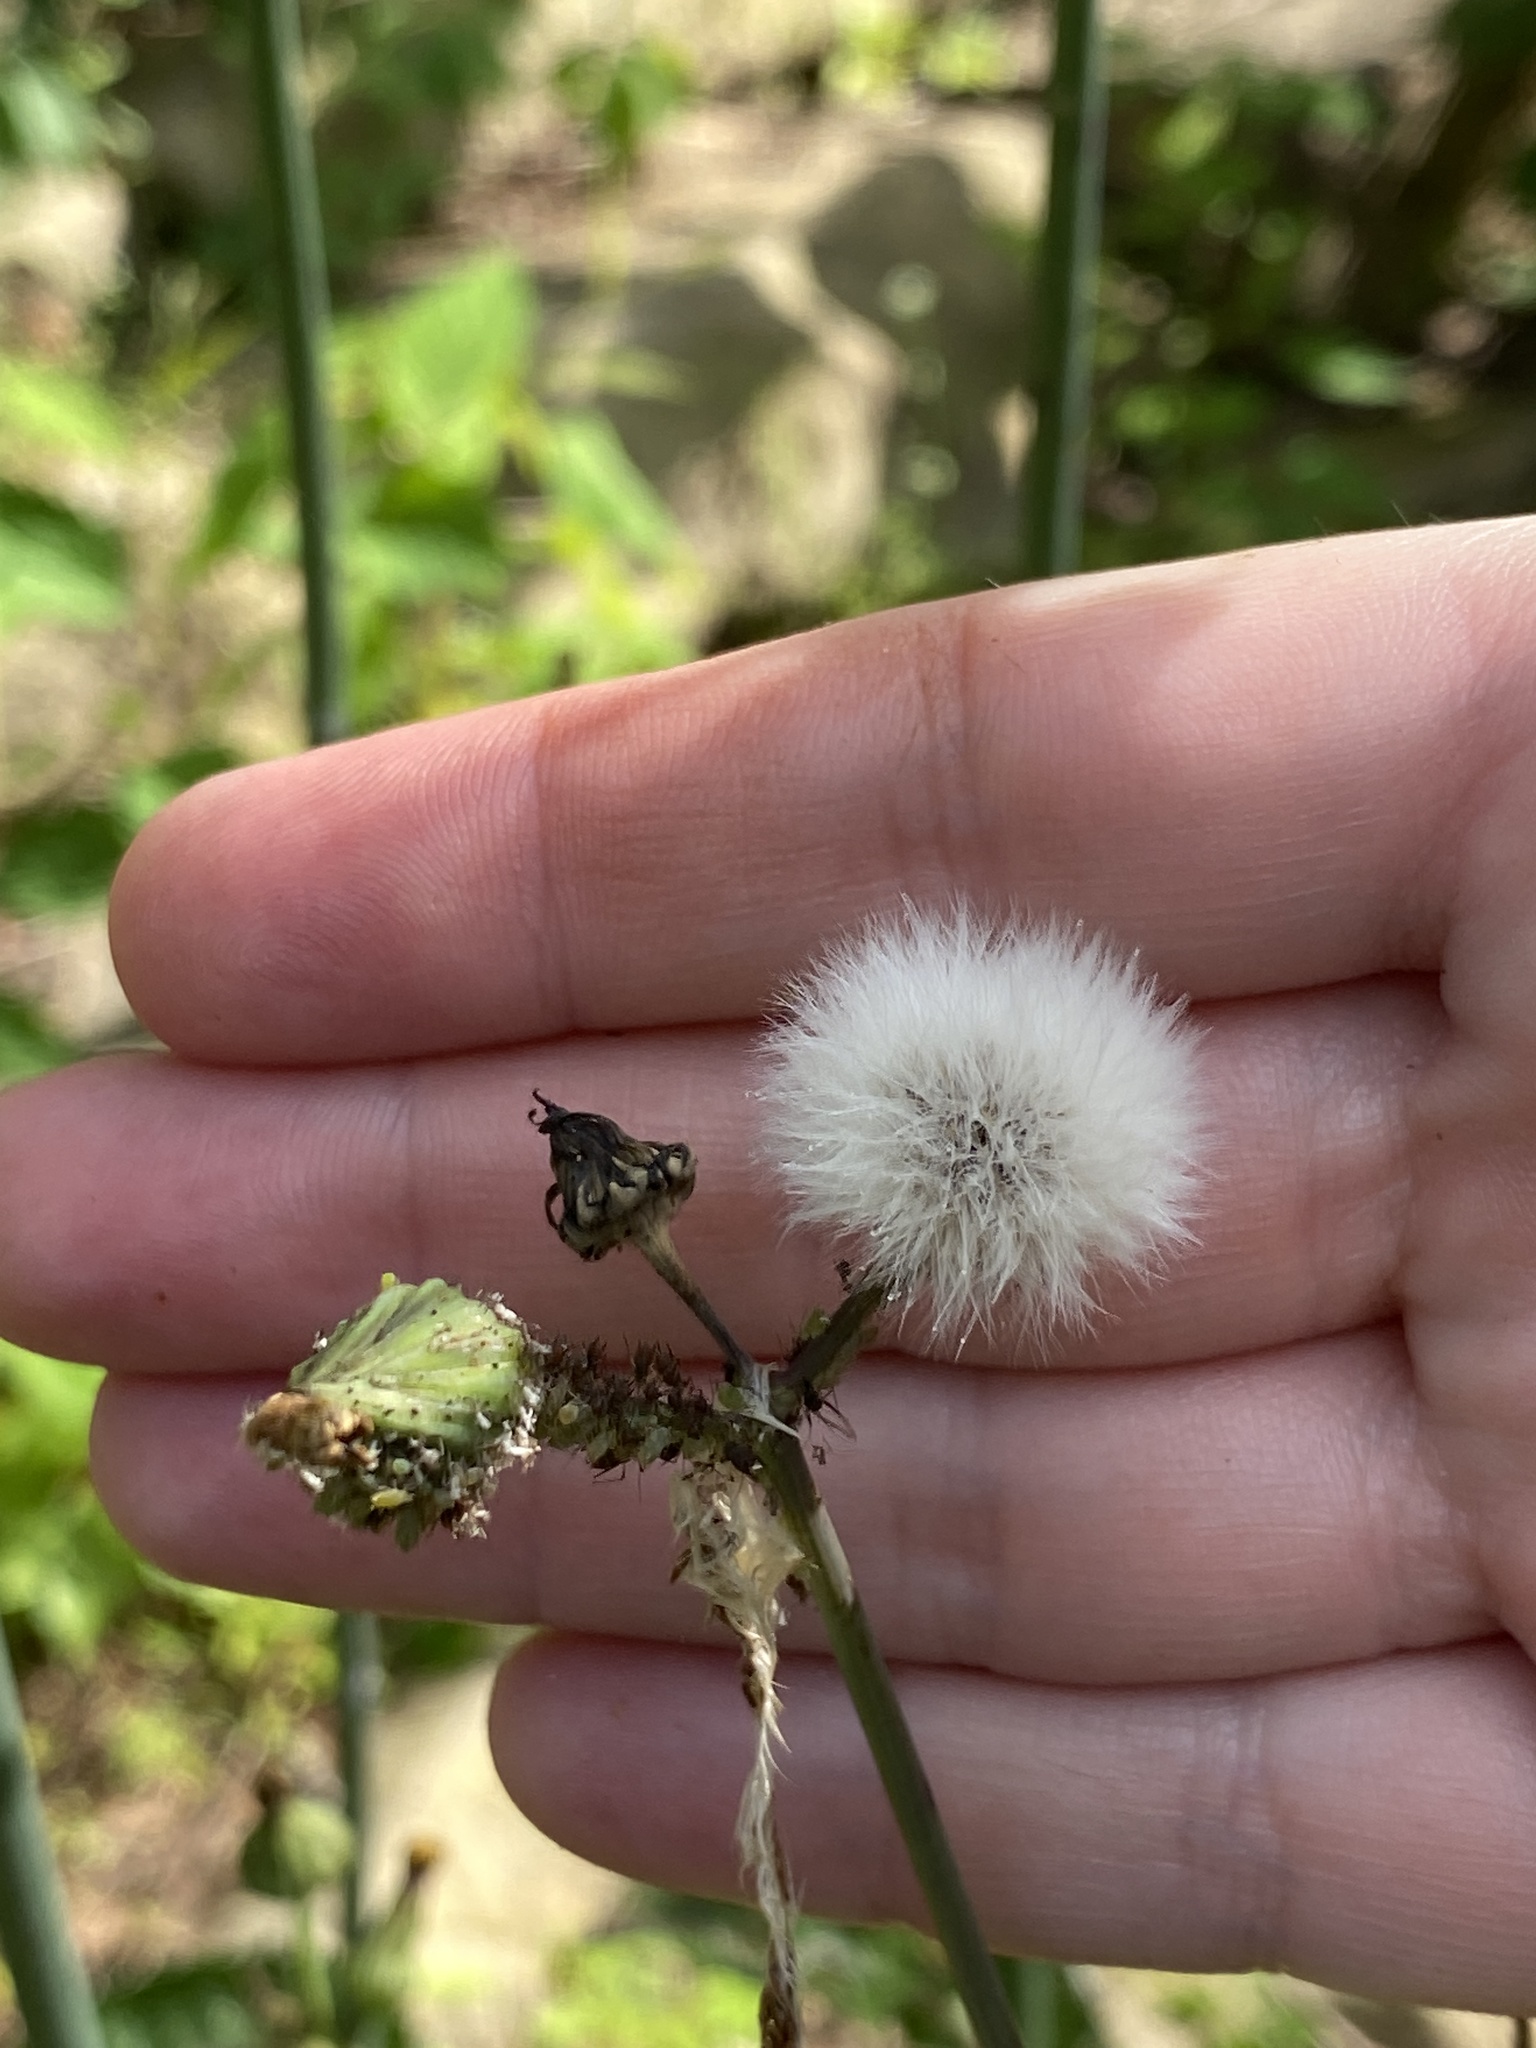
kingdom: Plantae
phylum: Tracheophyta
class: Magnoliopsida
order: Asterales
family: Asteraceae
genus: Sonchus
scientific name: Sonchus asper
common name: Prickly sow-thistle
